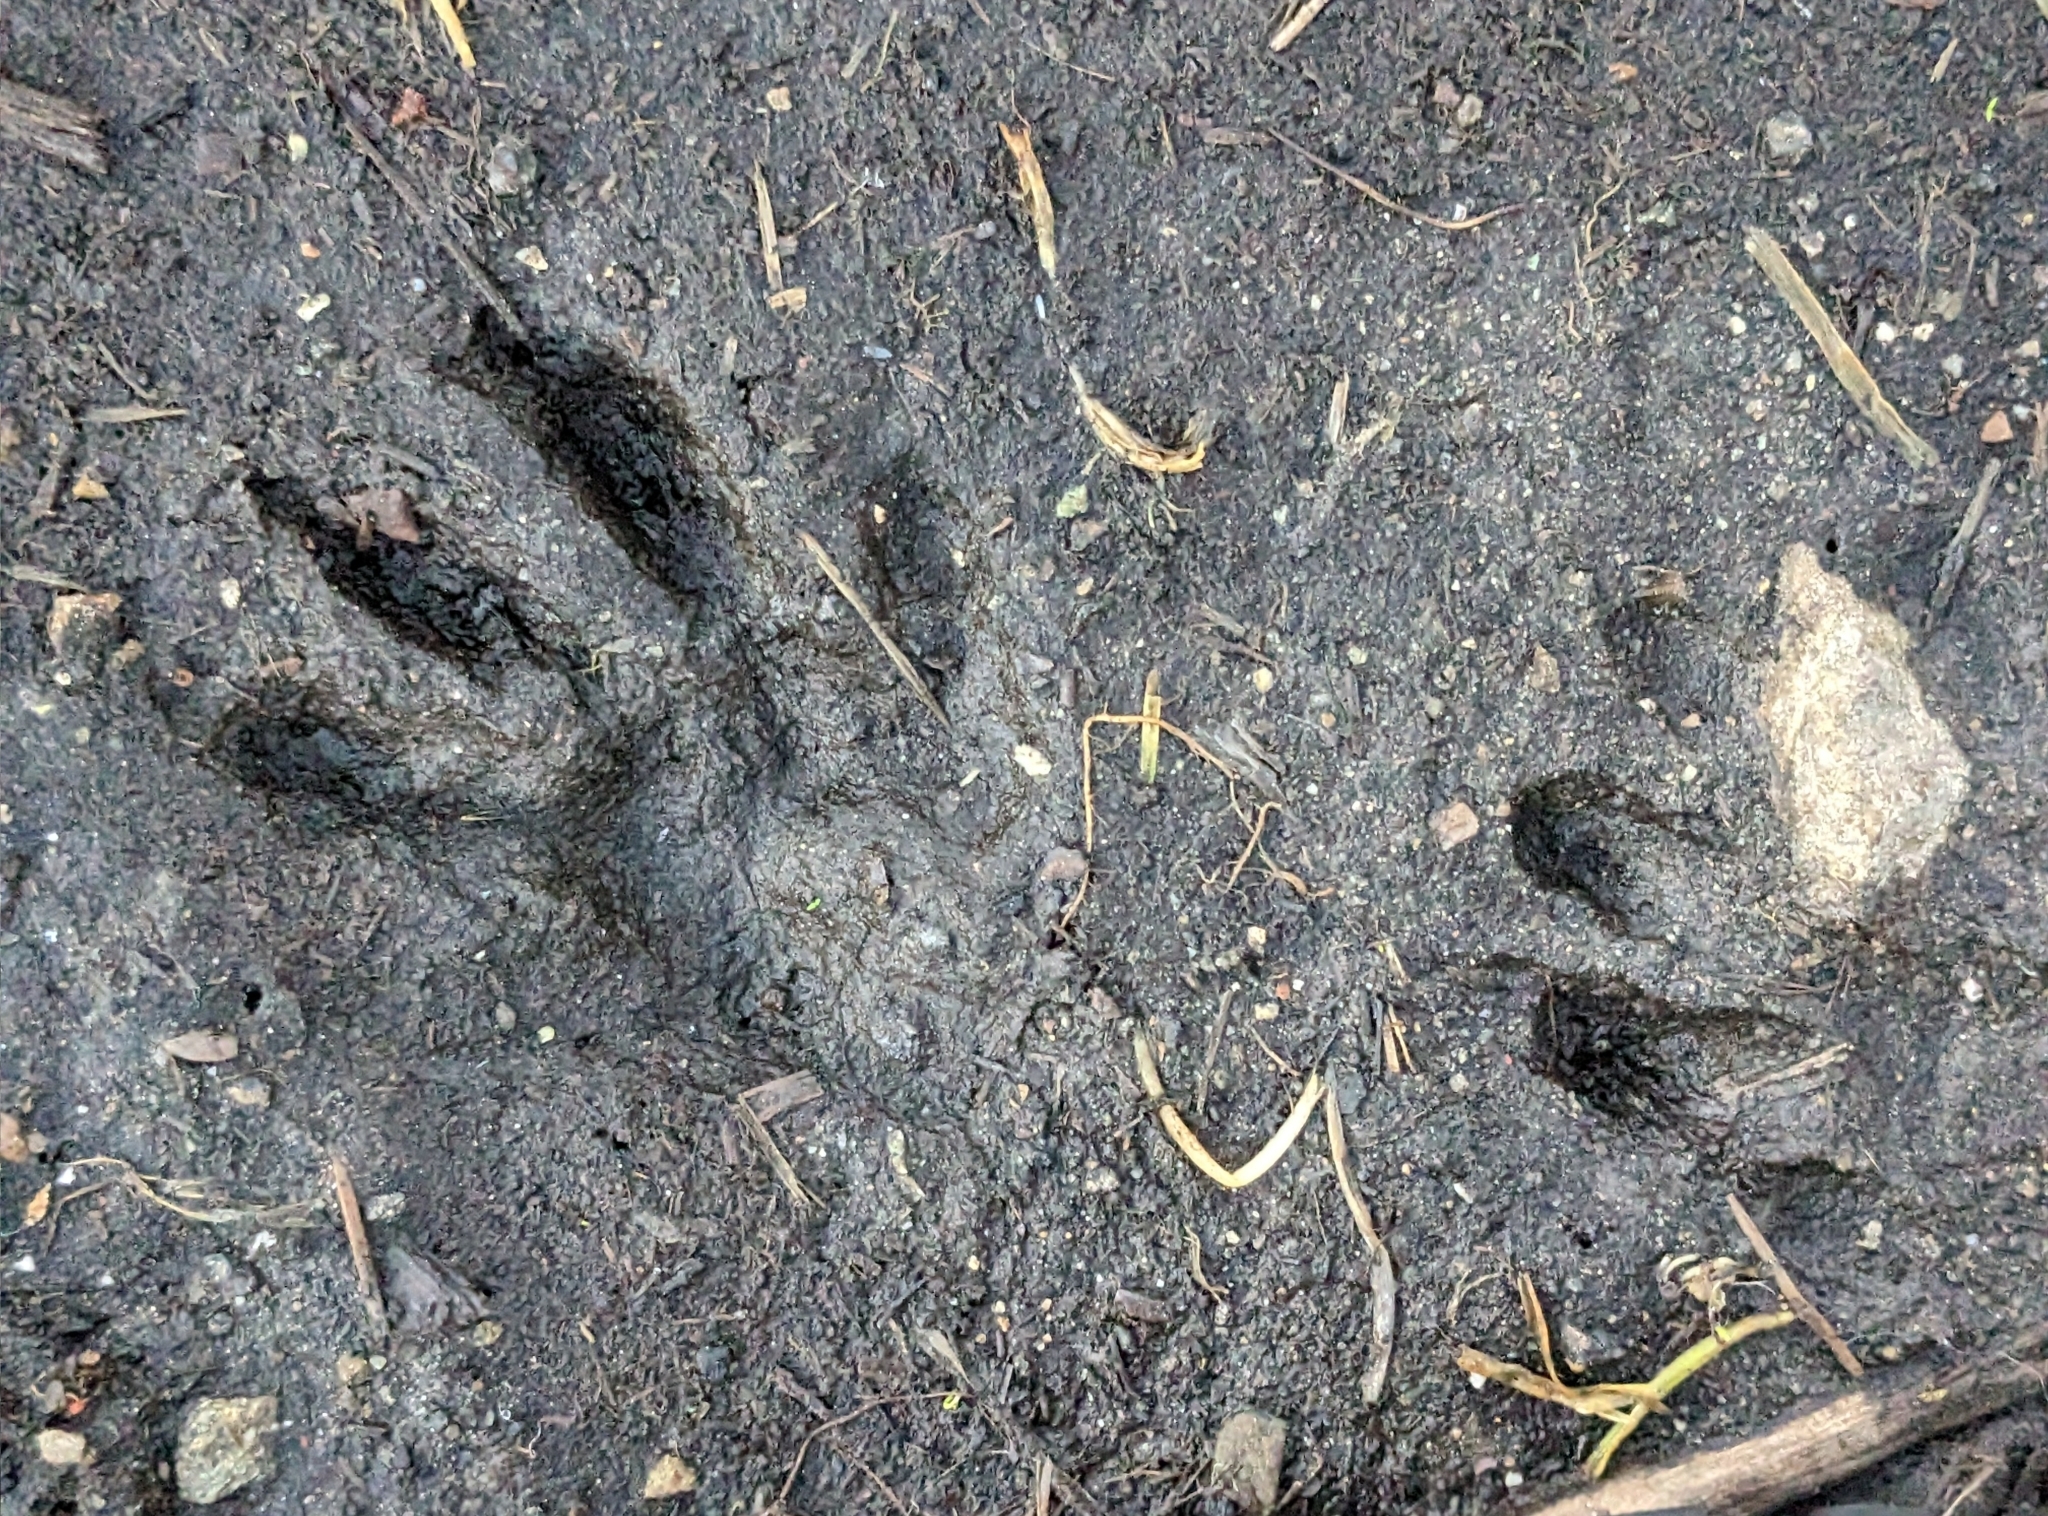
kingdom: Animalia
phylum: Chordata
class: Mammalia
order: Carnivora
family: Procyonidae
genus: Procyon
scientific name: Procyon lotor
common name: Raccoon
